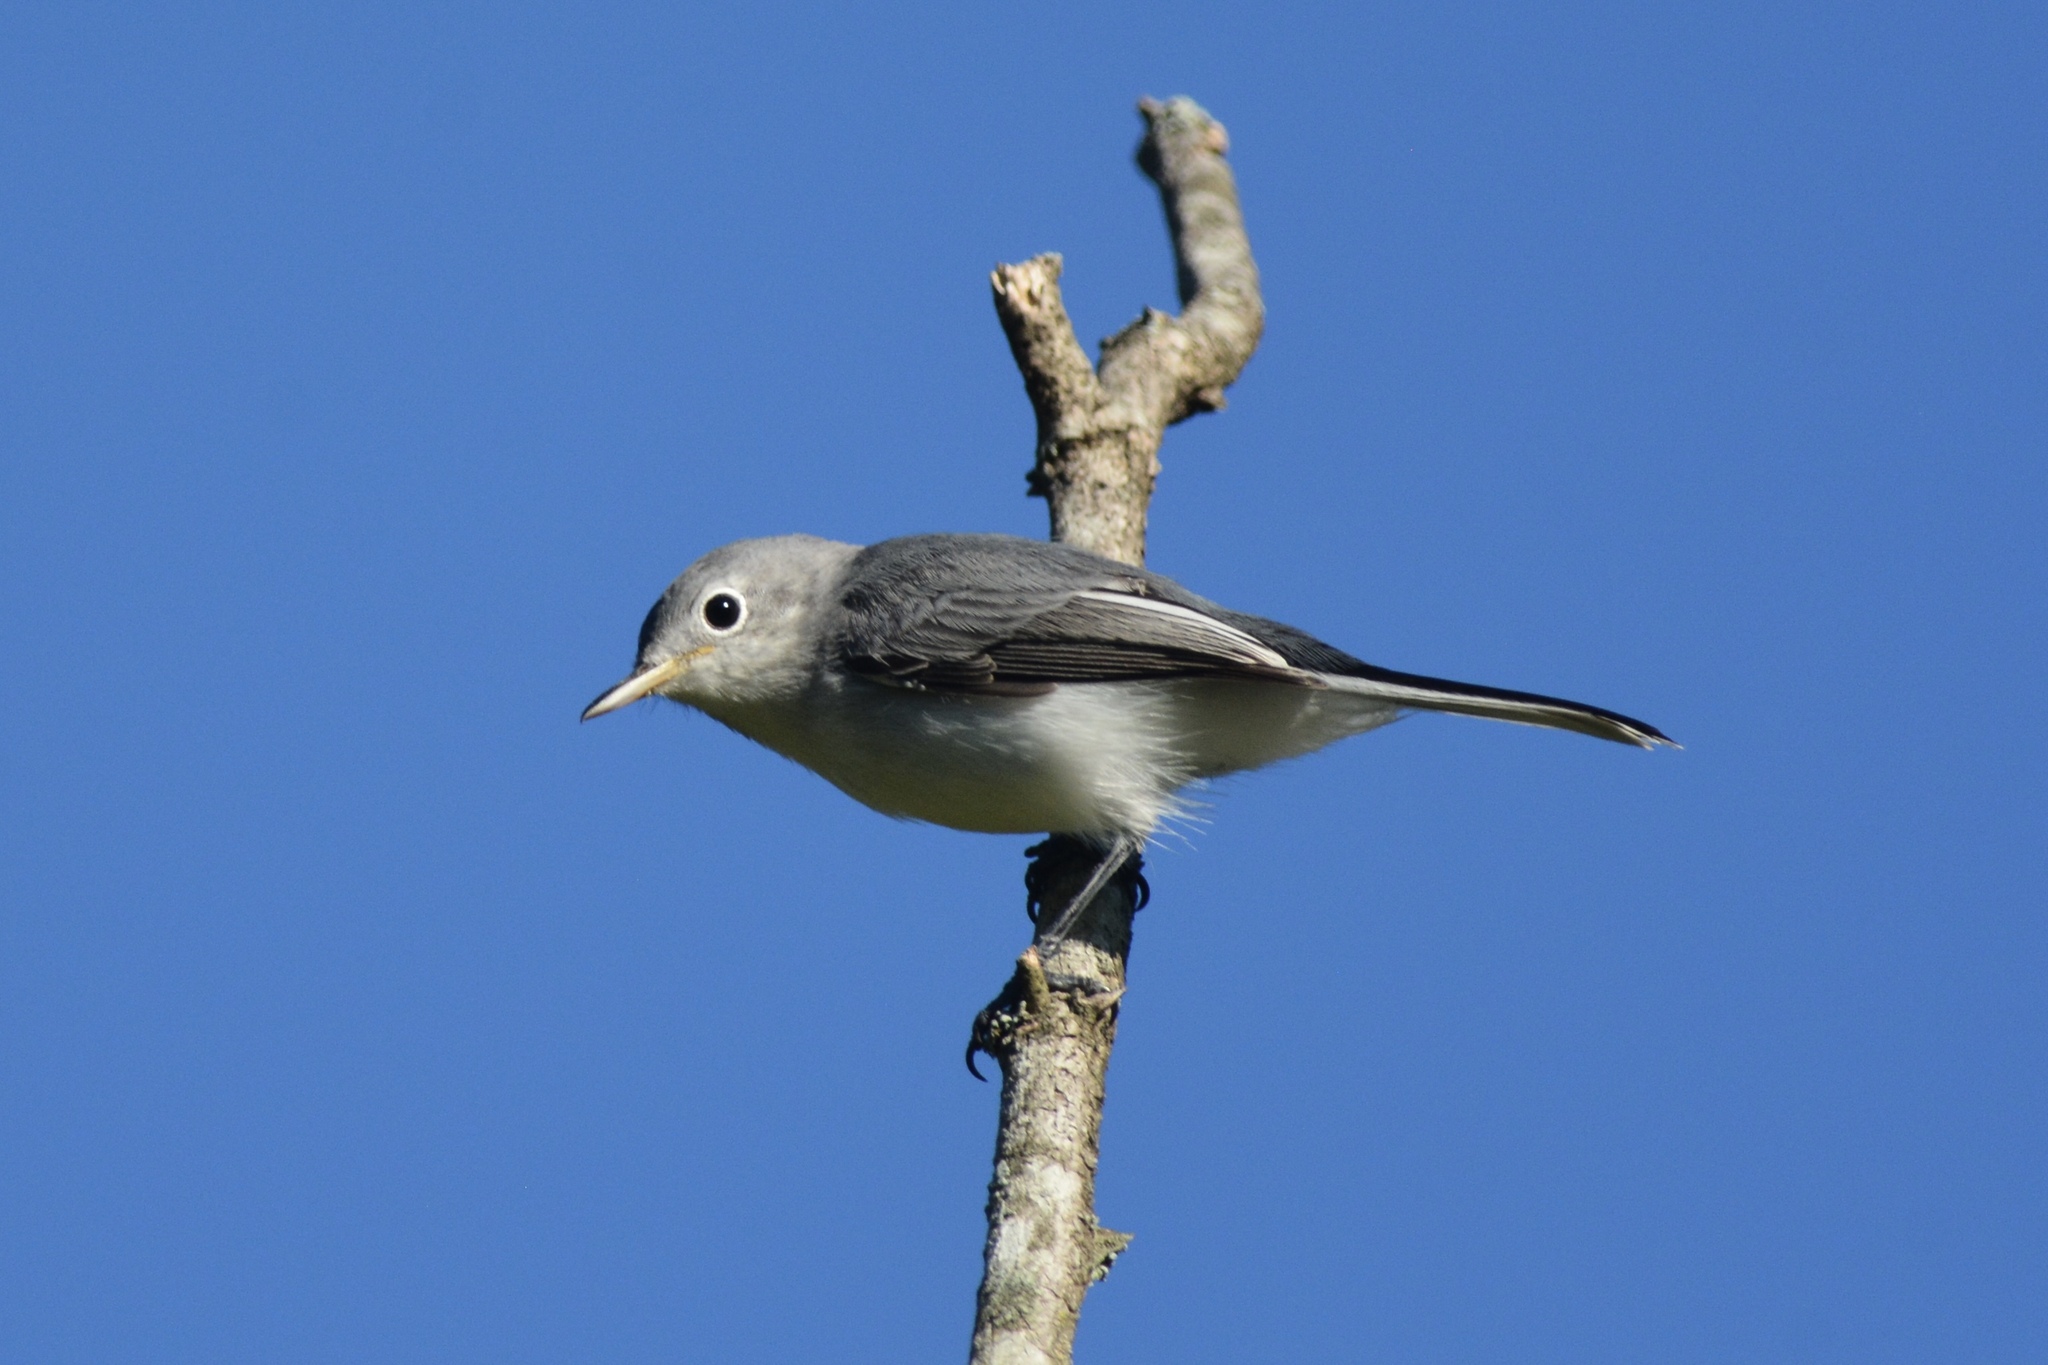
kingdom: Animalia
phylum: Chordata
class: Aves
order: Passeriformes
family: Polioptilidae
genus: Polioptila
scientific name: Polioptila caerulea
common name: Blue-gray gnatcatcher
